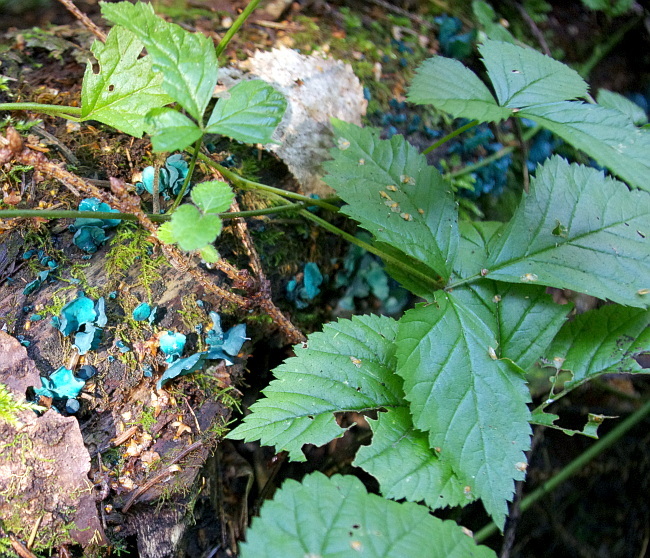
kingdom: Plantae
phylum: Tracheophyta
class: Magnoliopsida
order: Rosales
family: Rosaceae
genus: Rubus
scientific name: Rubus saxatilis
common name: Stone bramble
